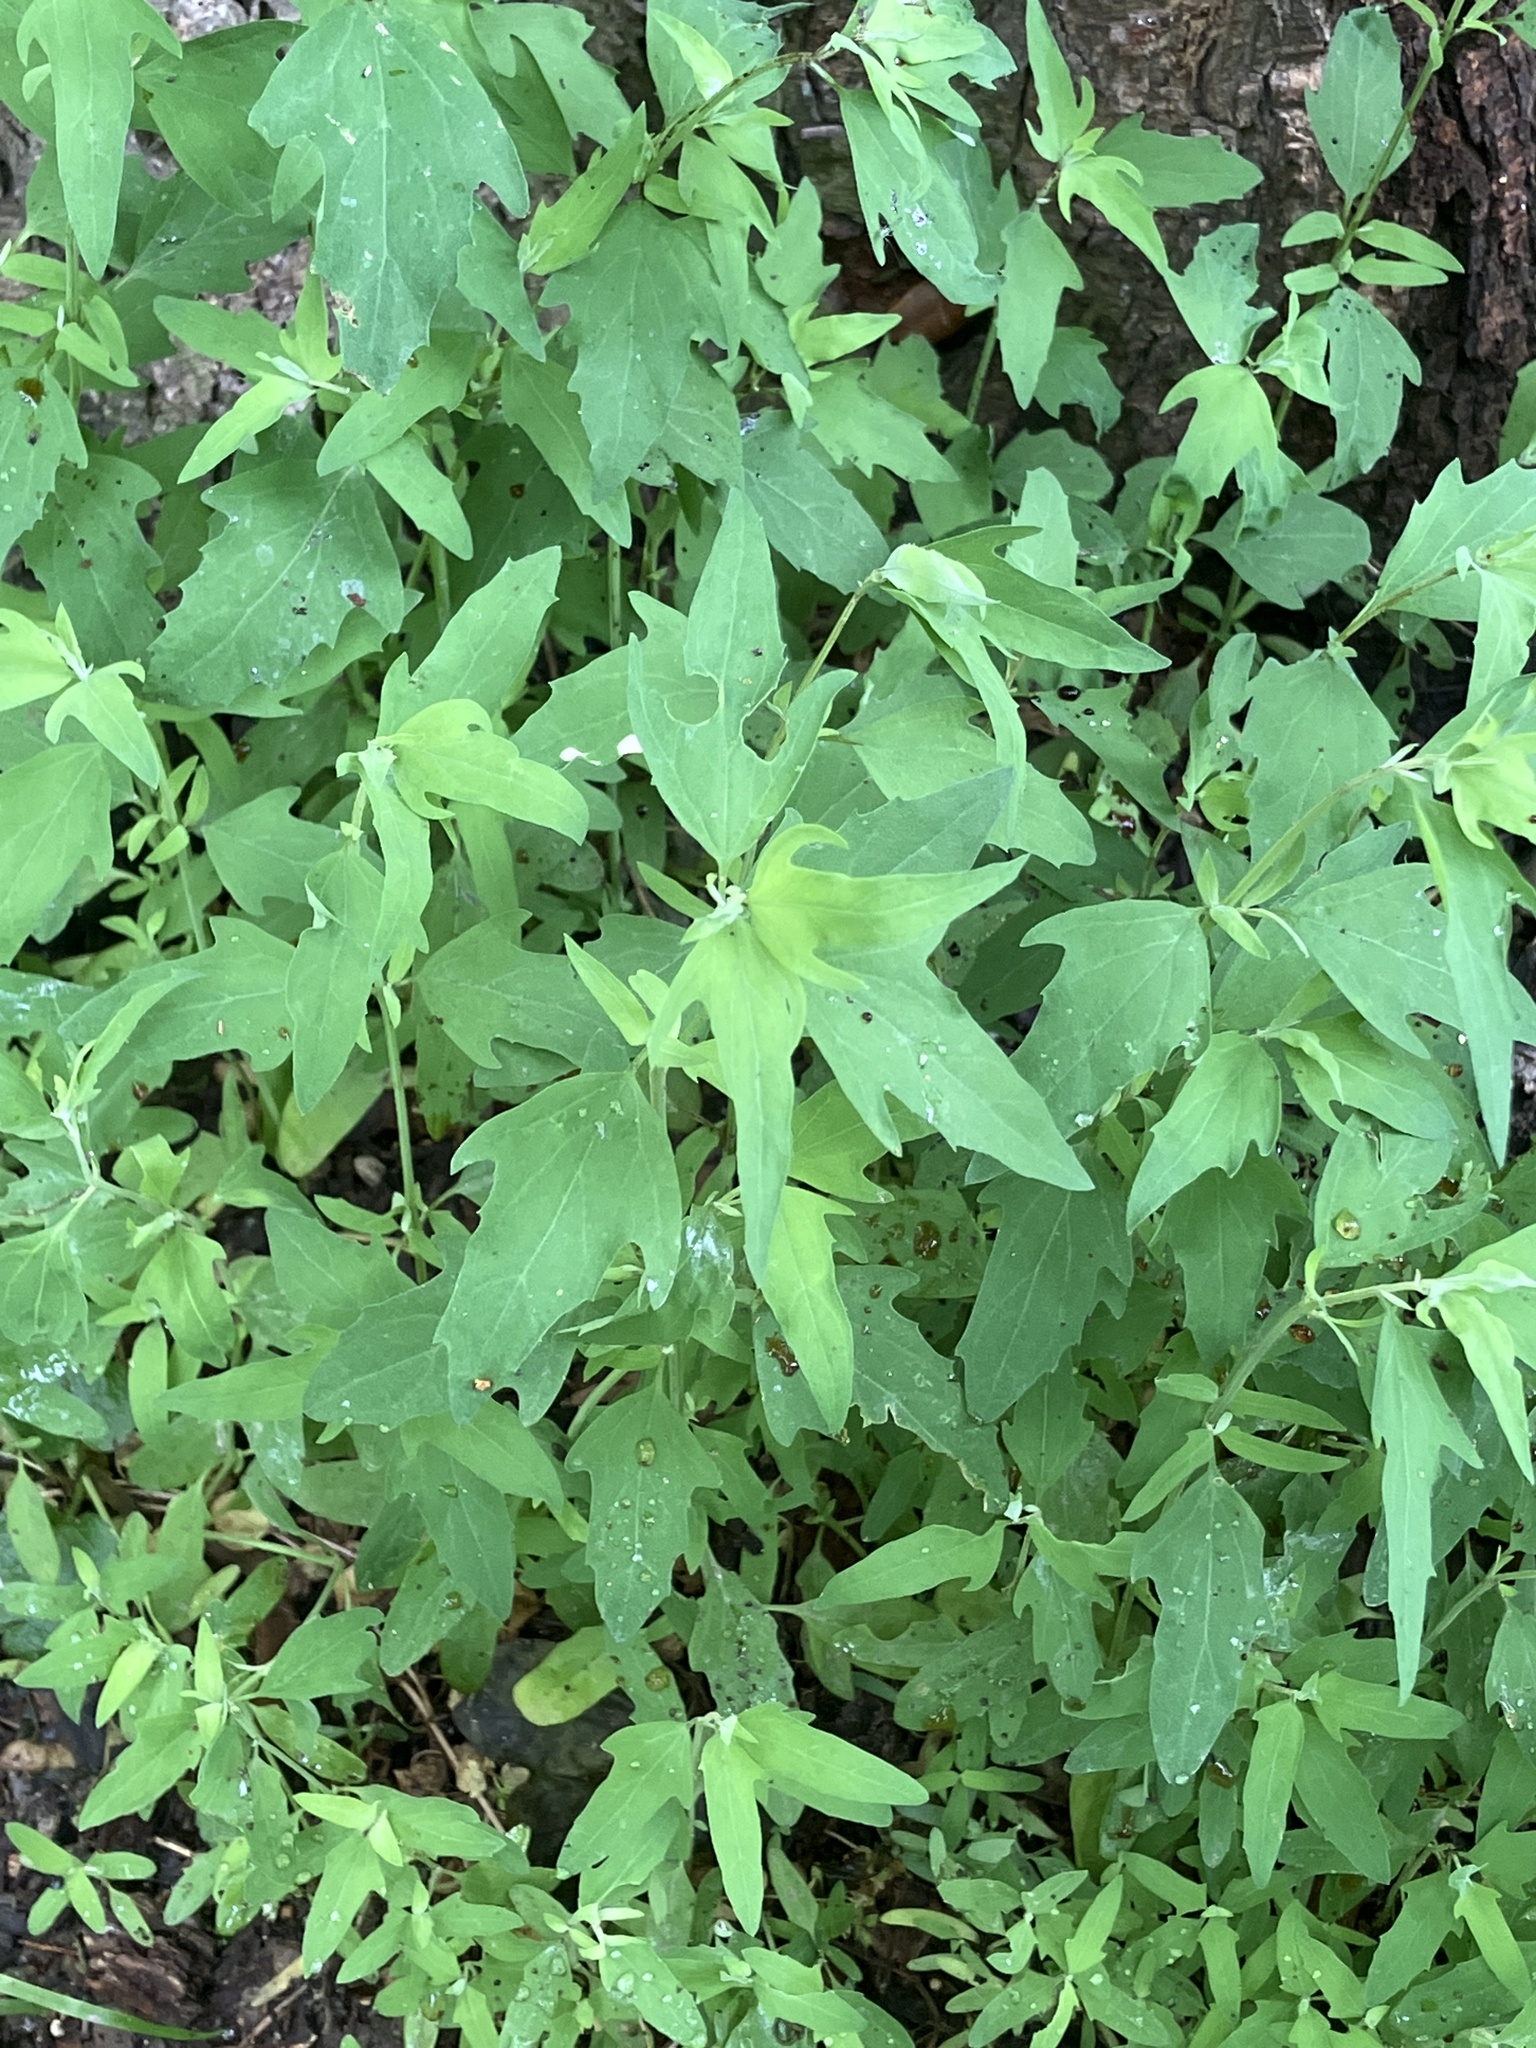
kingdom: Plantae
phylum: Tracheophyta
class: Magnoliopsida
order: Caryophyllales
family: Amaranthaceae
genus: Chenopodium
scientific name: Chenopodium ficifolium
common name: Fig-leaved goosefoot
